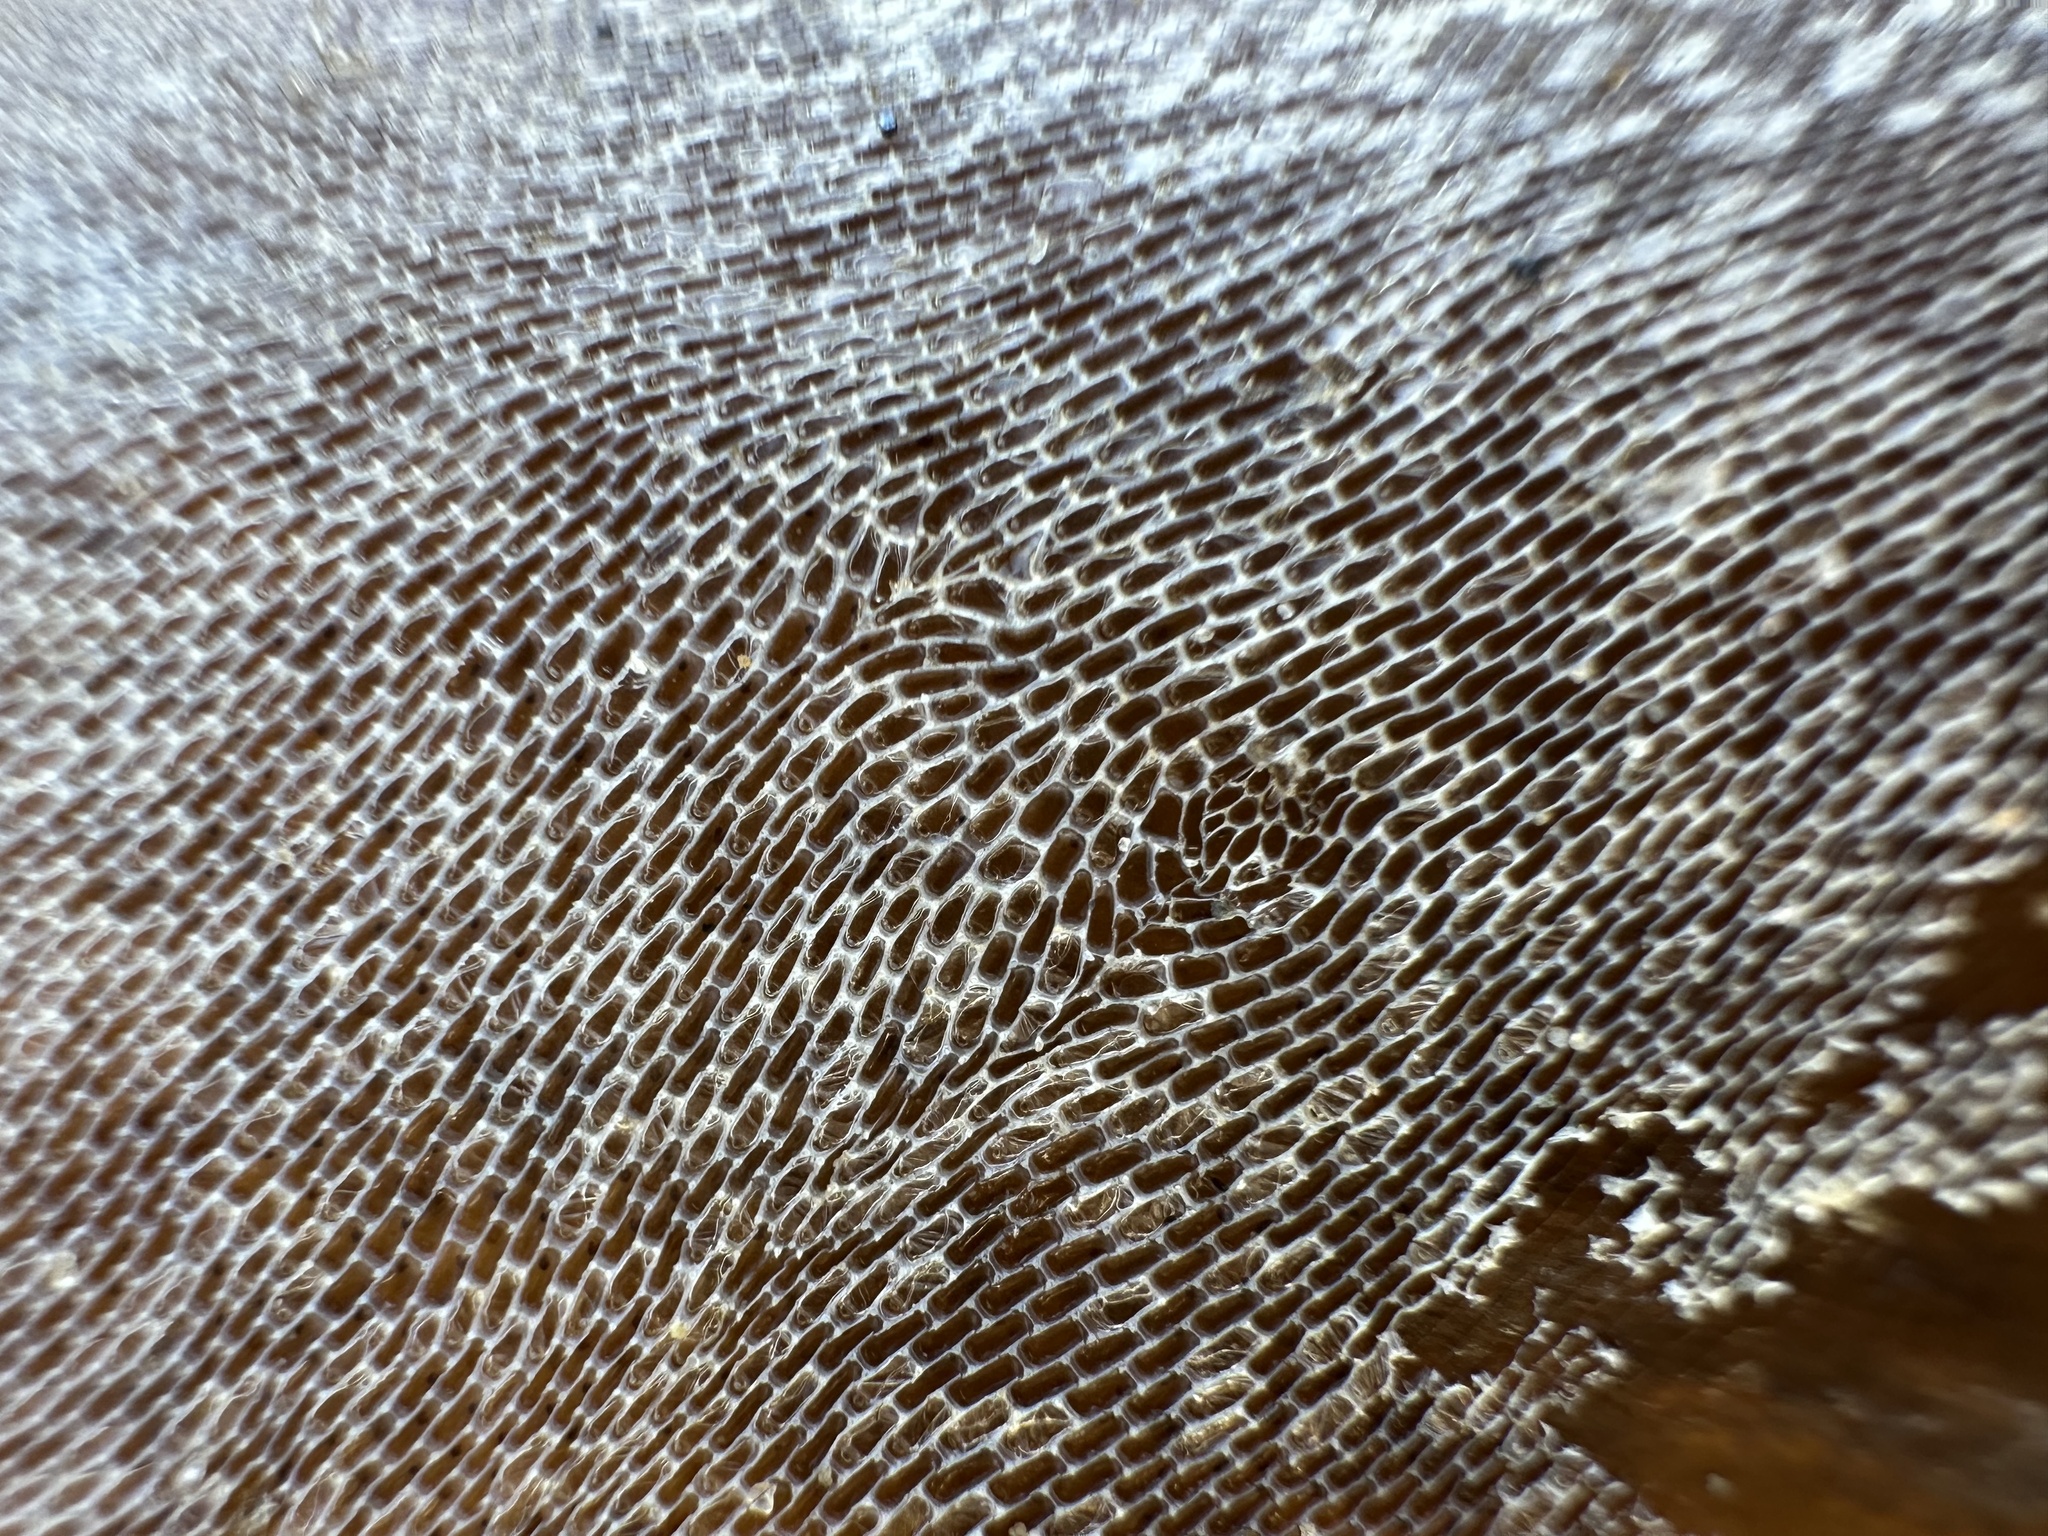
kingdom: Animalia
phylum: Bryozoa
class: Gymnolaemata
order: Cheilostomatida
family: Membraniporidae
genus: Membranipora
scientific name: Membranipora membranacea
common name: Sea mat
